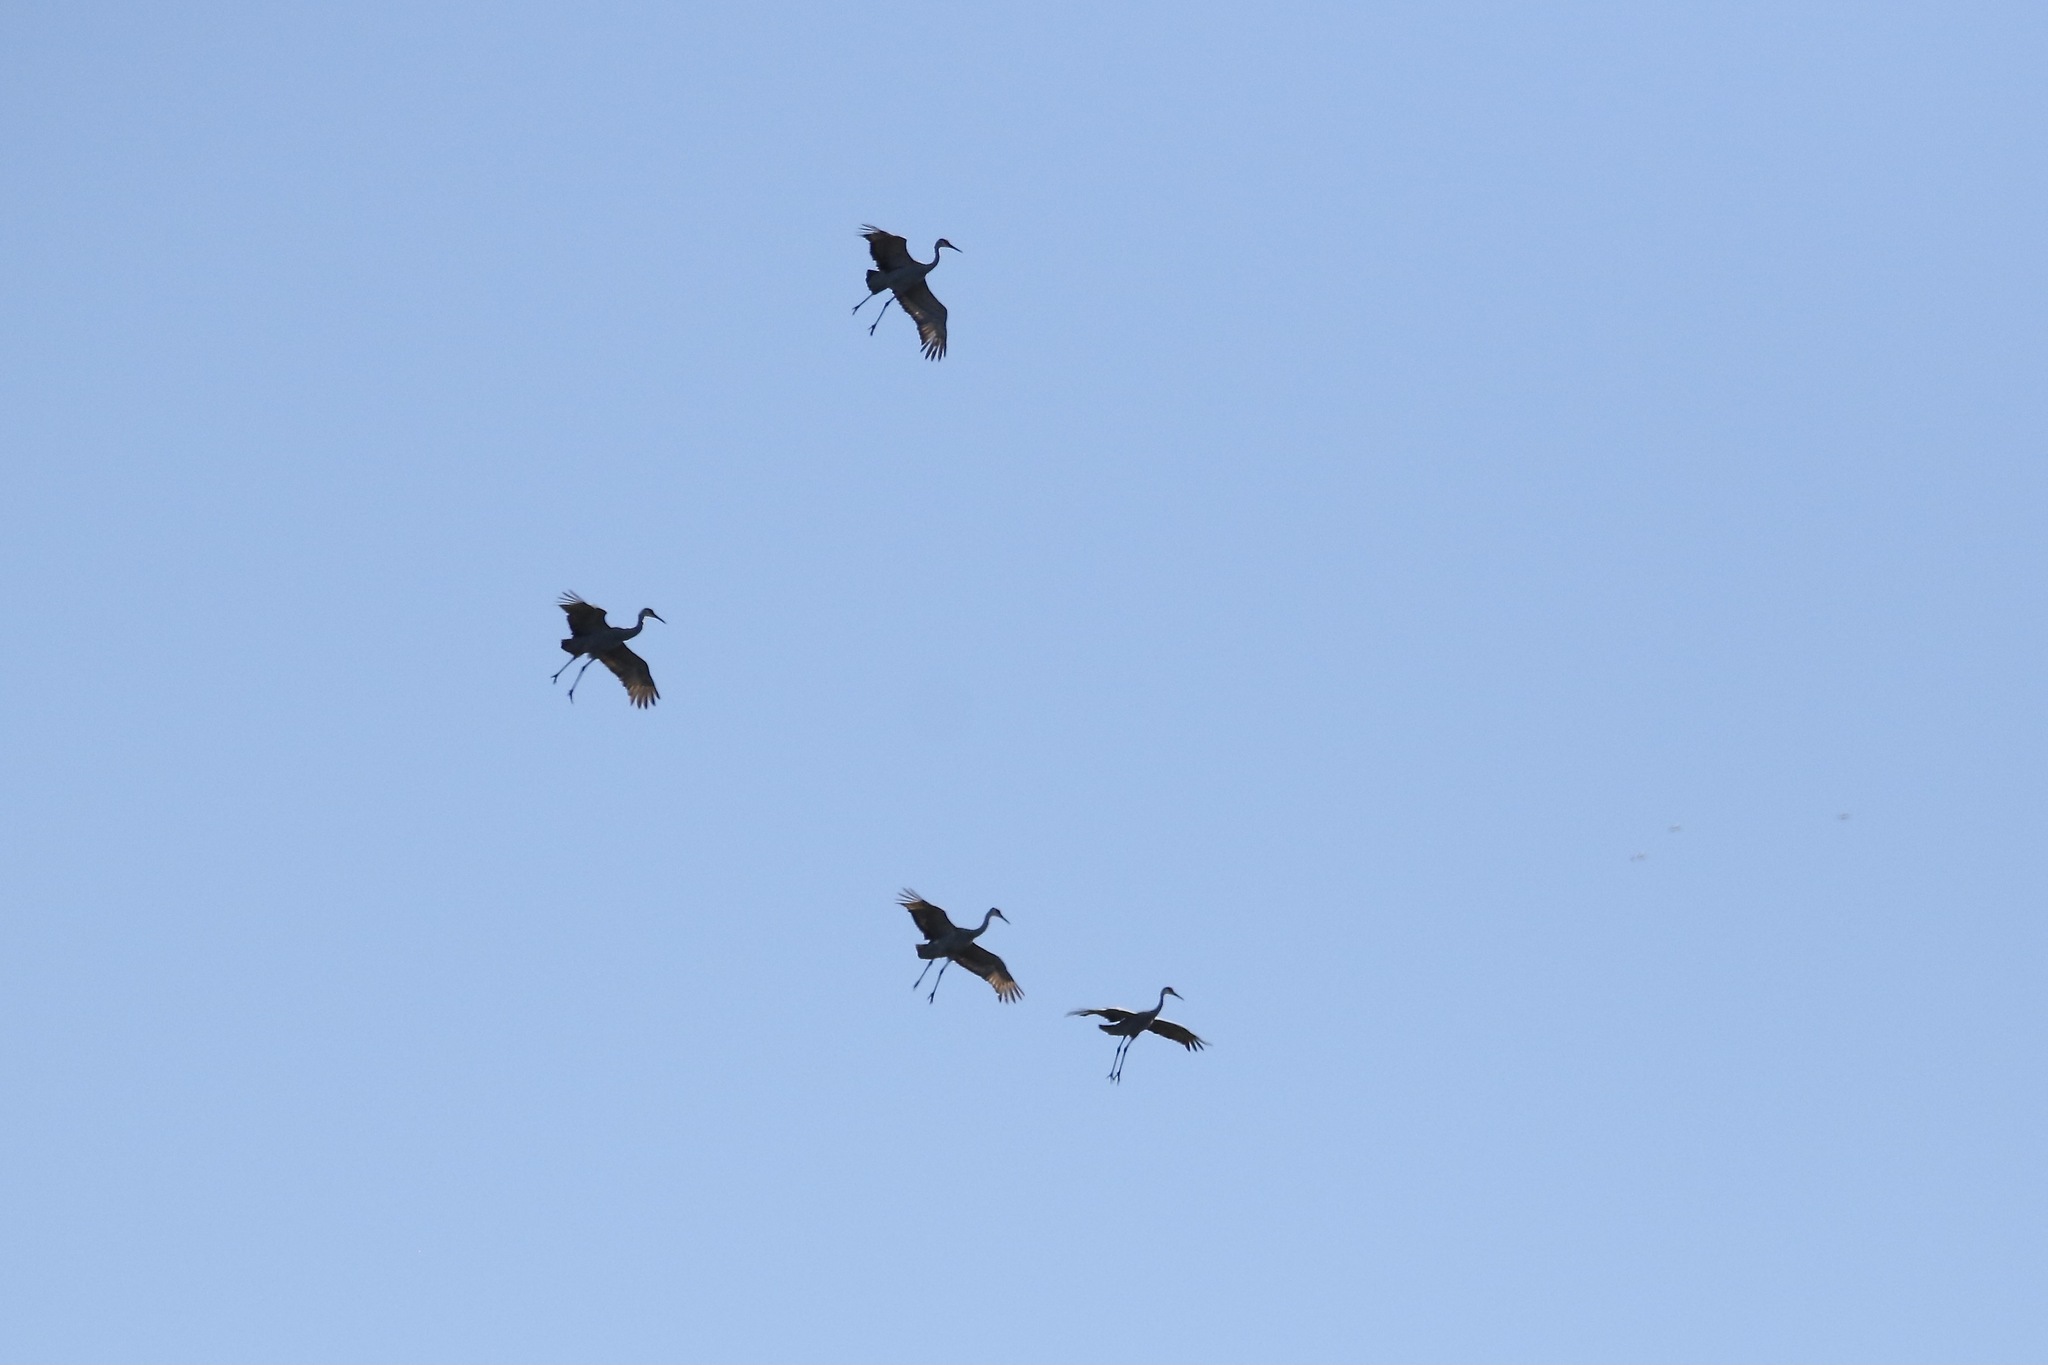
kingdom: Animalia
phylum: Chordata
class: Aves
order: Gruiformes
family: Gruidae
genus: Grus
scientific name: Grus canadensis
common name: Sandhill crane
